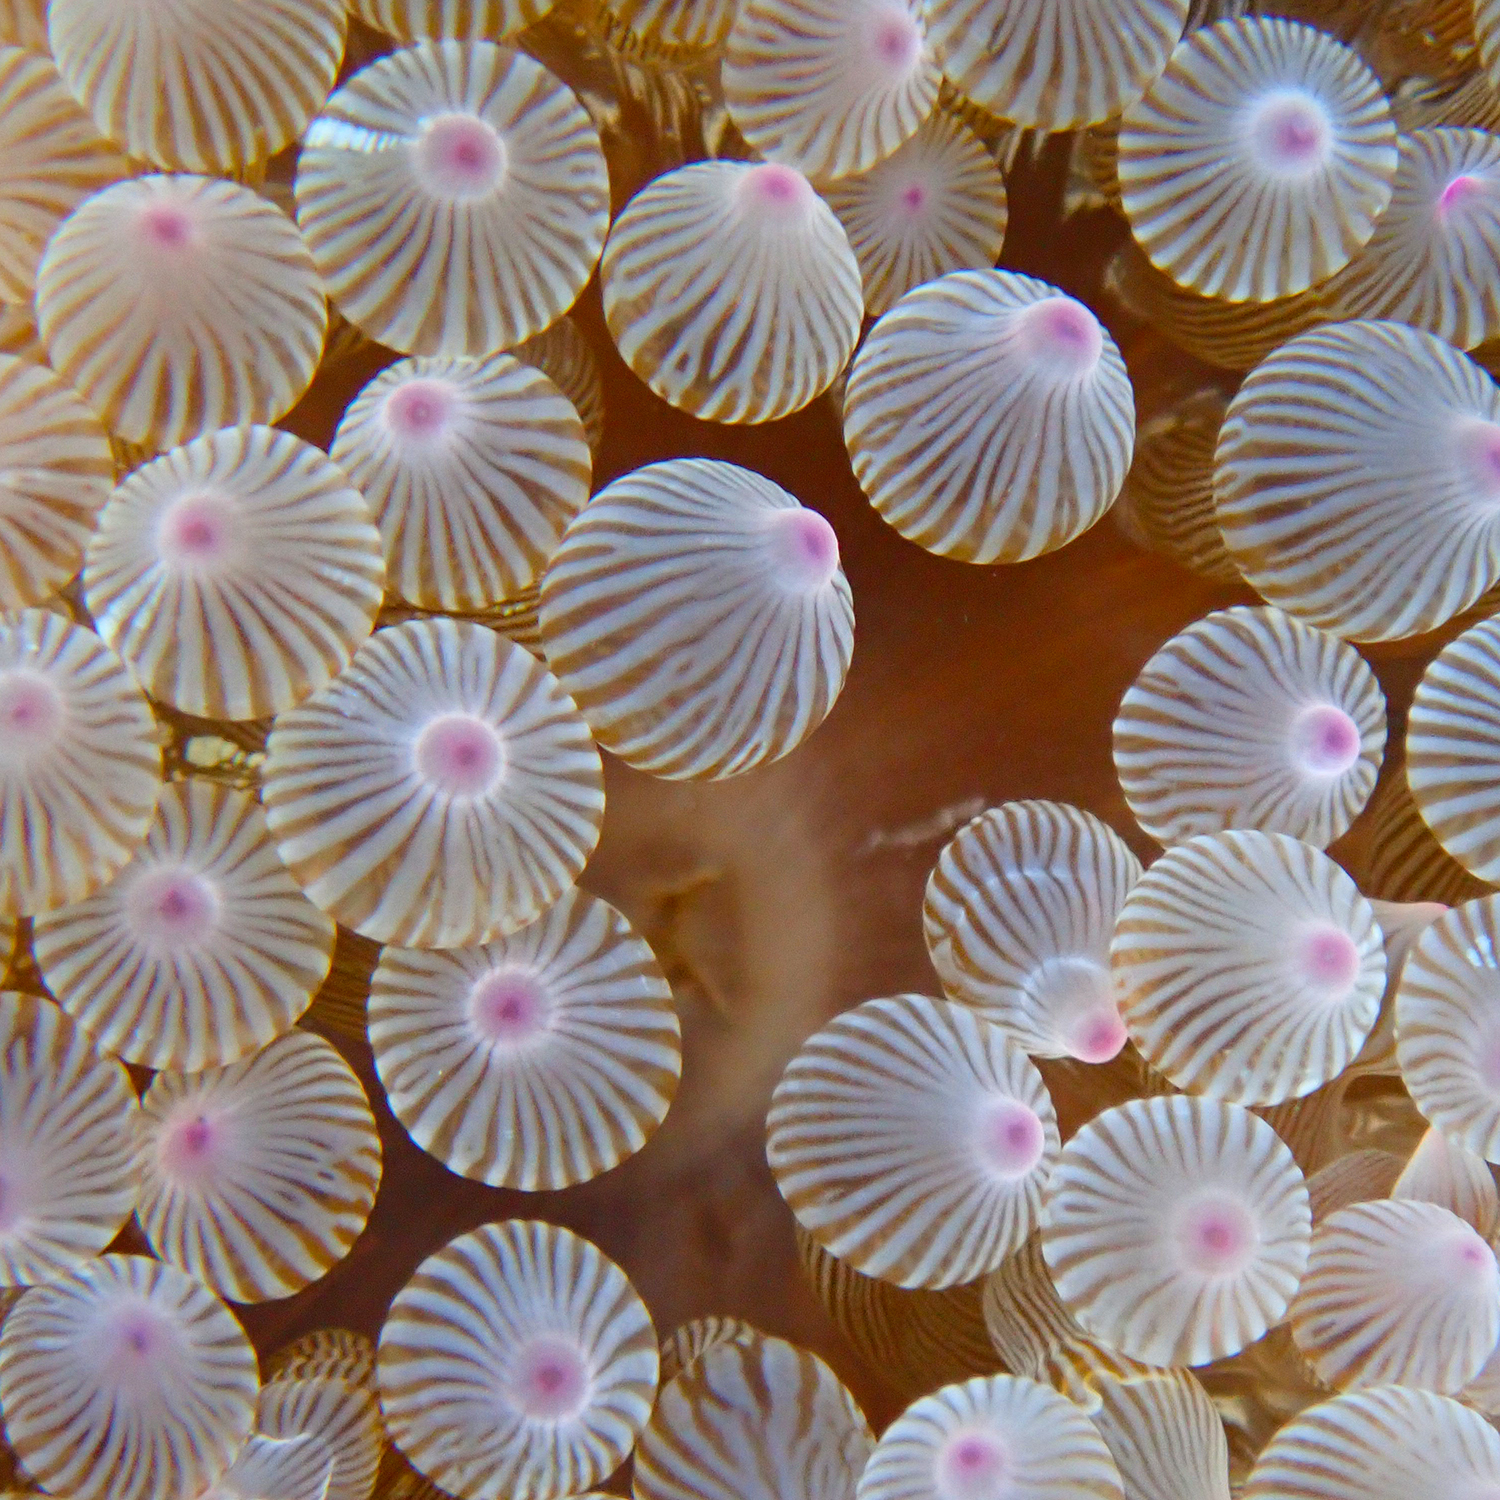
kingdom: Animalia
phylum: Cnidaria
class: Anthozoa
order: Actiniaria
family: Actiniidae
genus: Entacmaea
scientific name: Entacmaea quadricolor
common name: Bulb tentacle sea anemone
